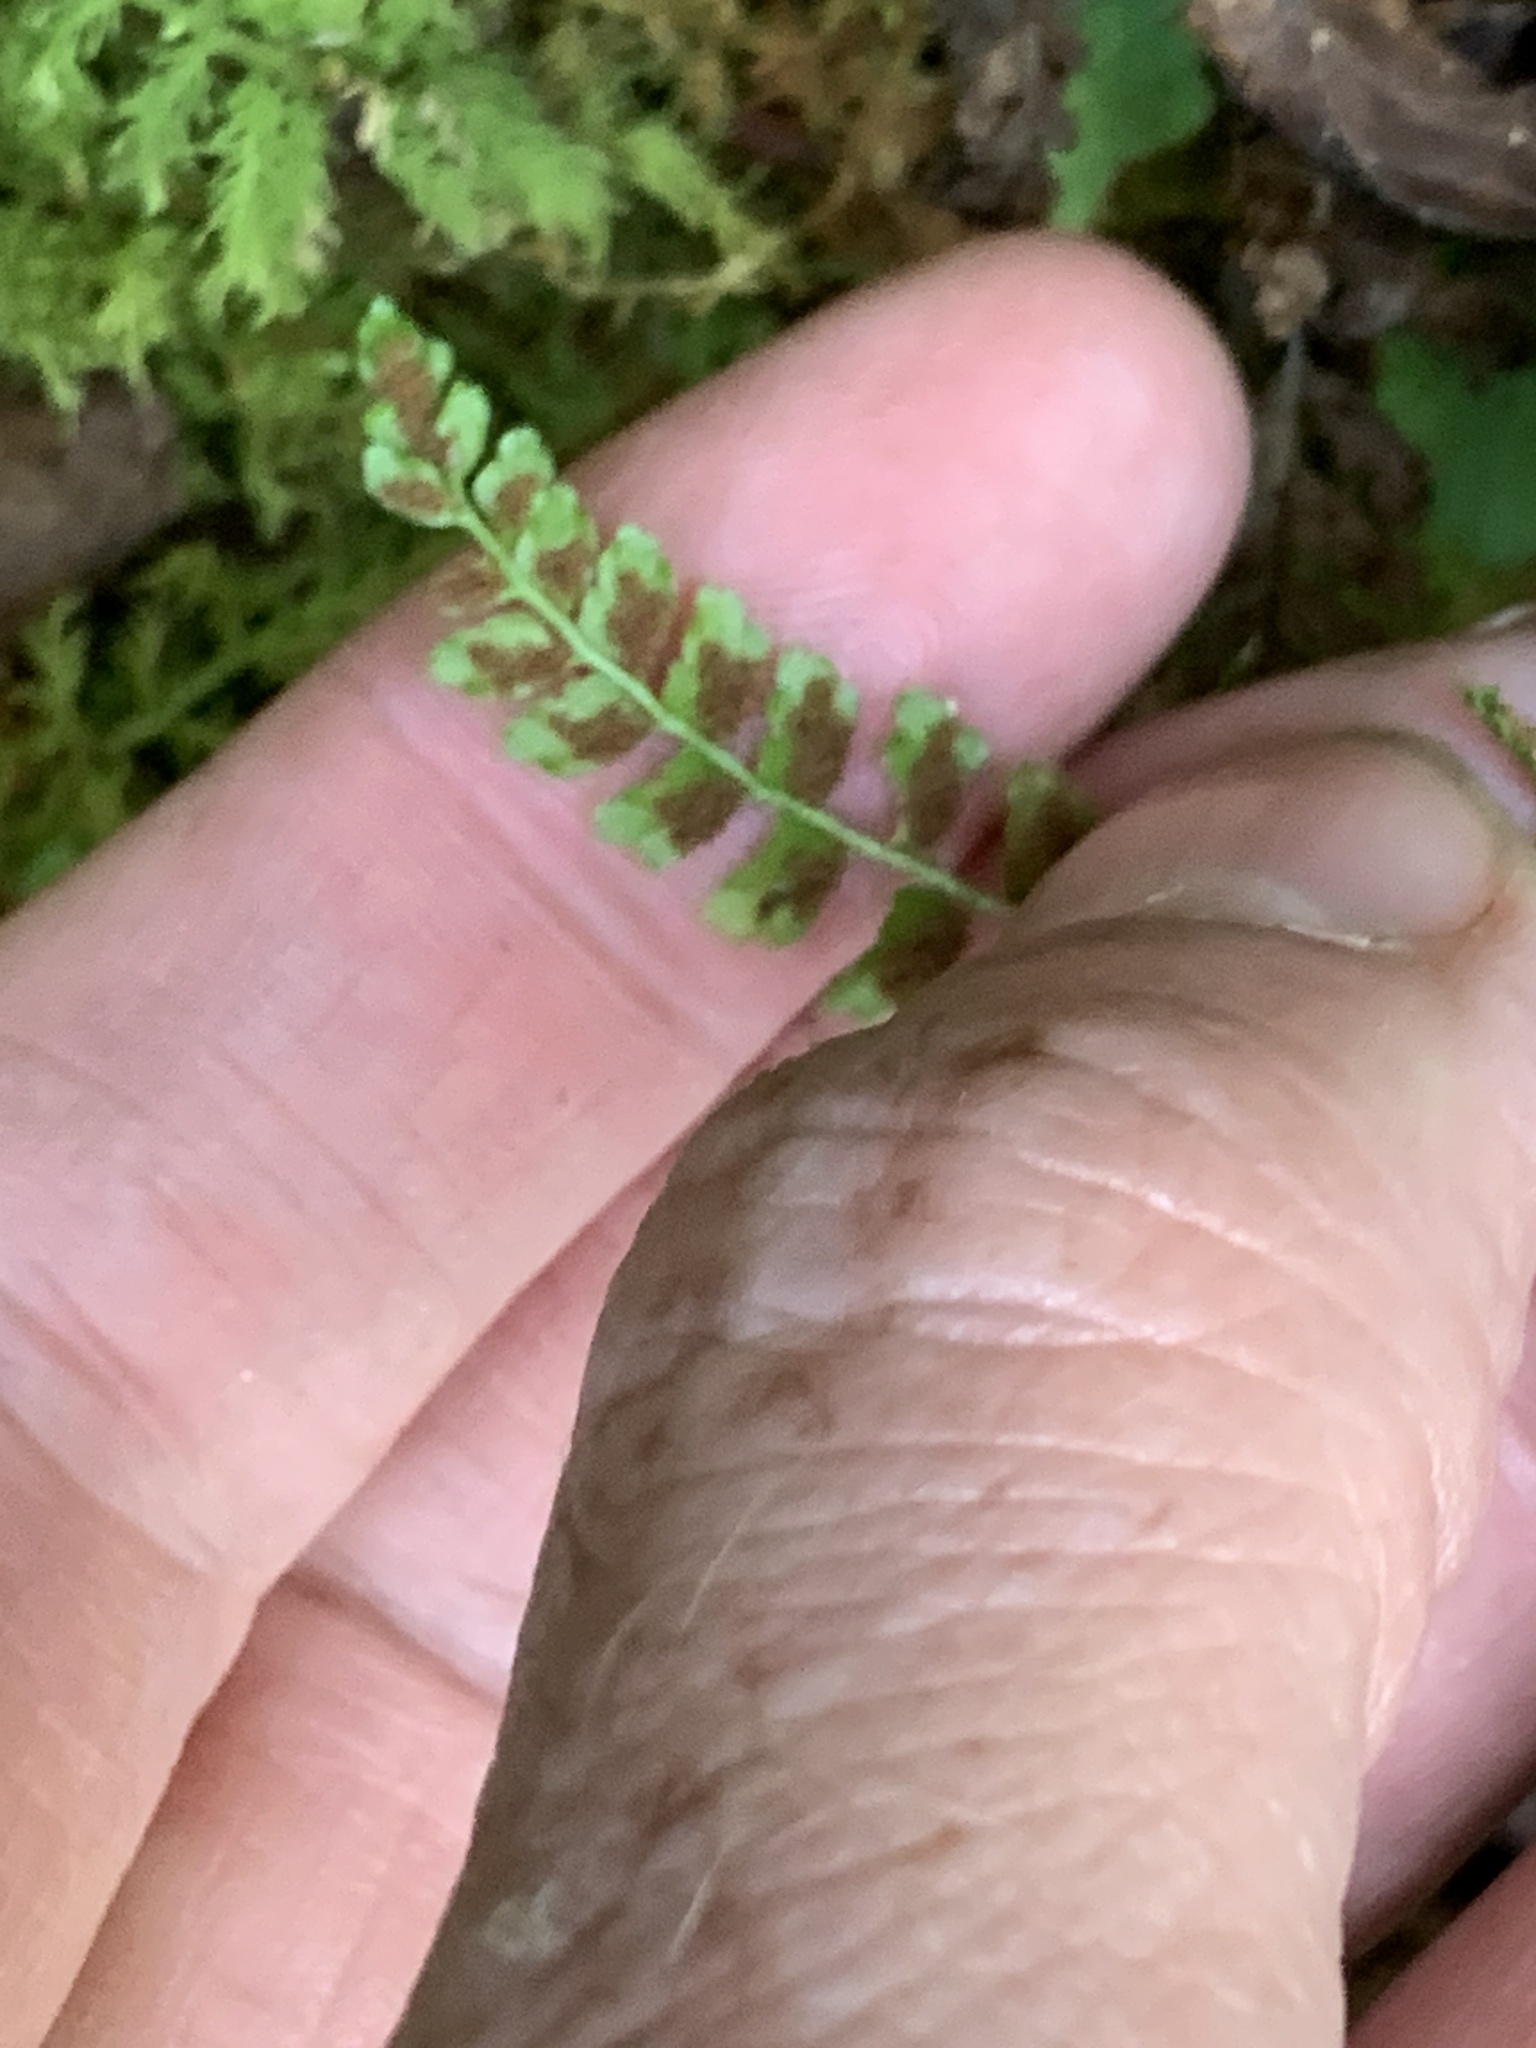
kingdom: Plantae
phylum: Tracheophyta
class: Polypodiopsida
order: Polypodiales
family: Aspleniaceae
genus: Asplenium
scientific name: Asplenium viride
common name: Green spleenwort
